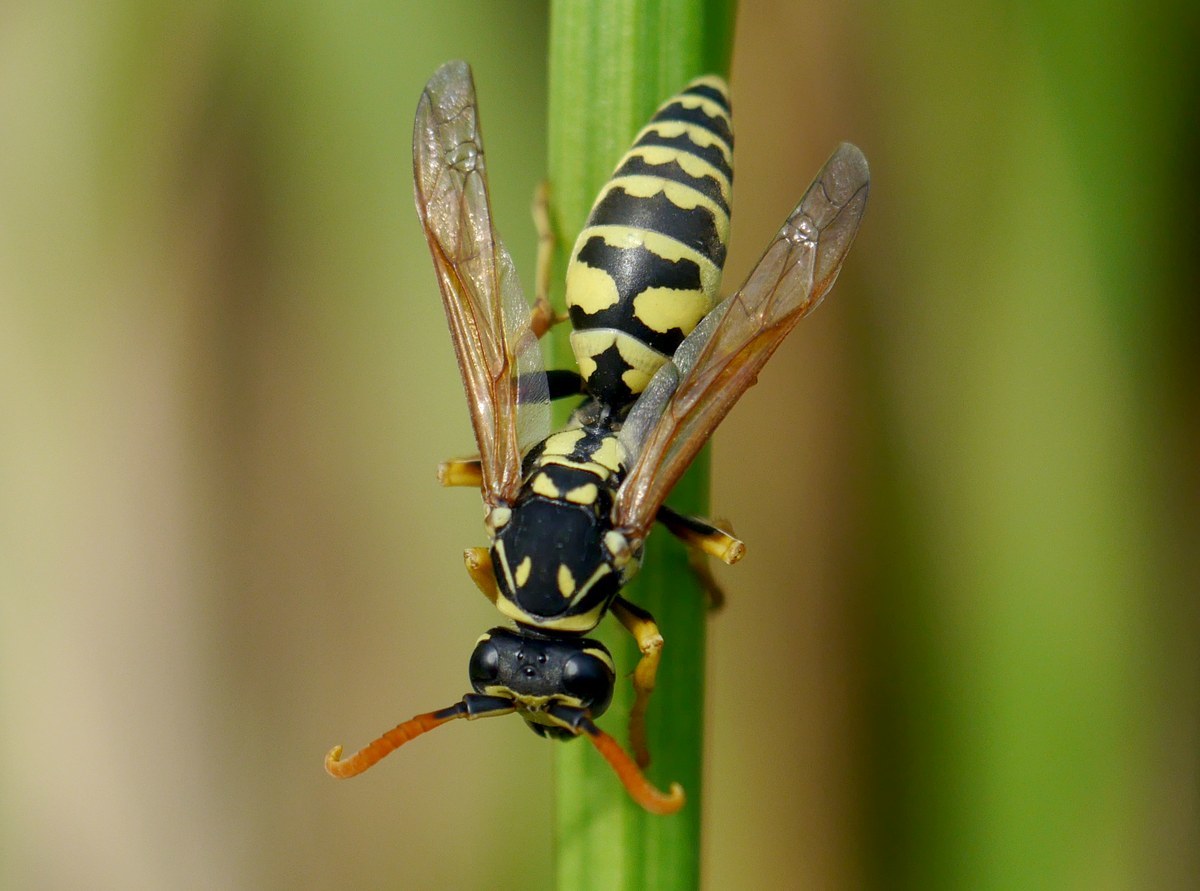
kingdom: Animalia
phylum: Arthropoda
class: Insecta
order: Hymenoptera
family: Eumenidae
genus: Polistes
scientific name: Polistes dominula
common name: Paper wasp
